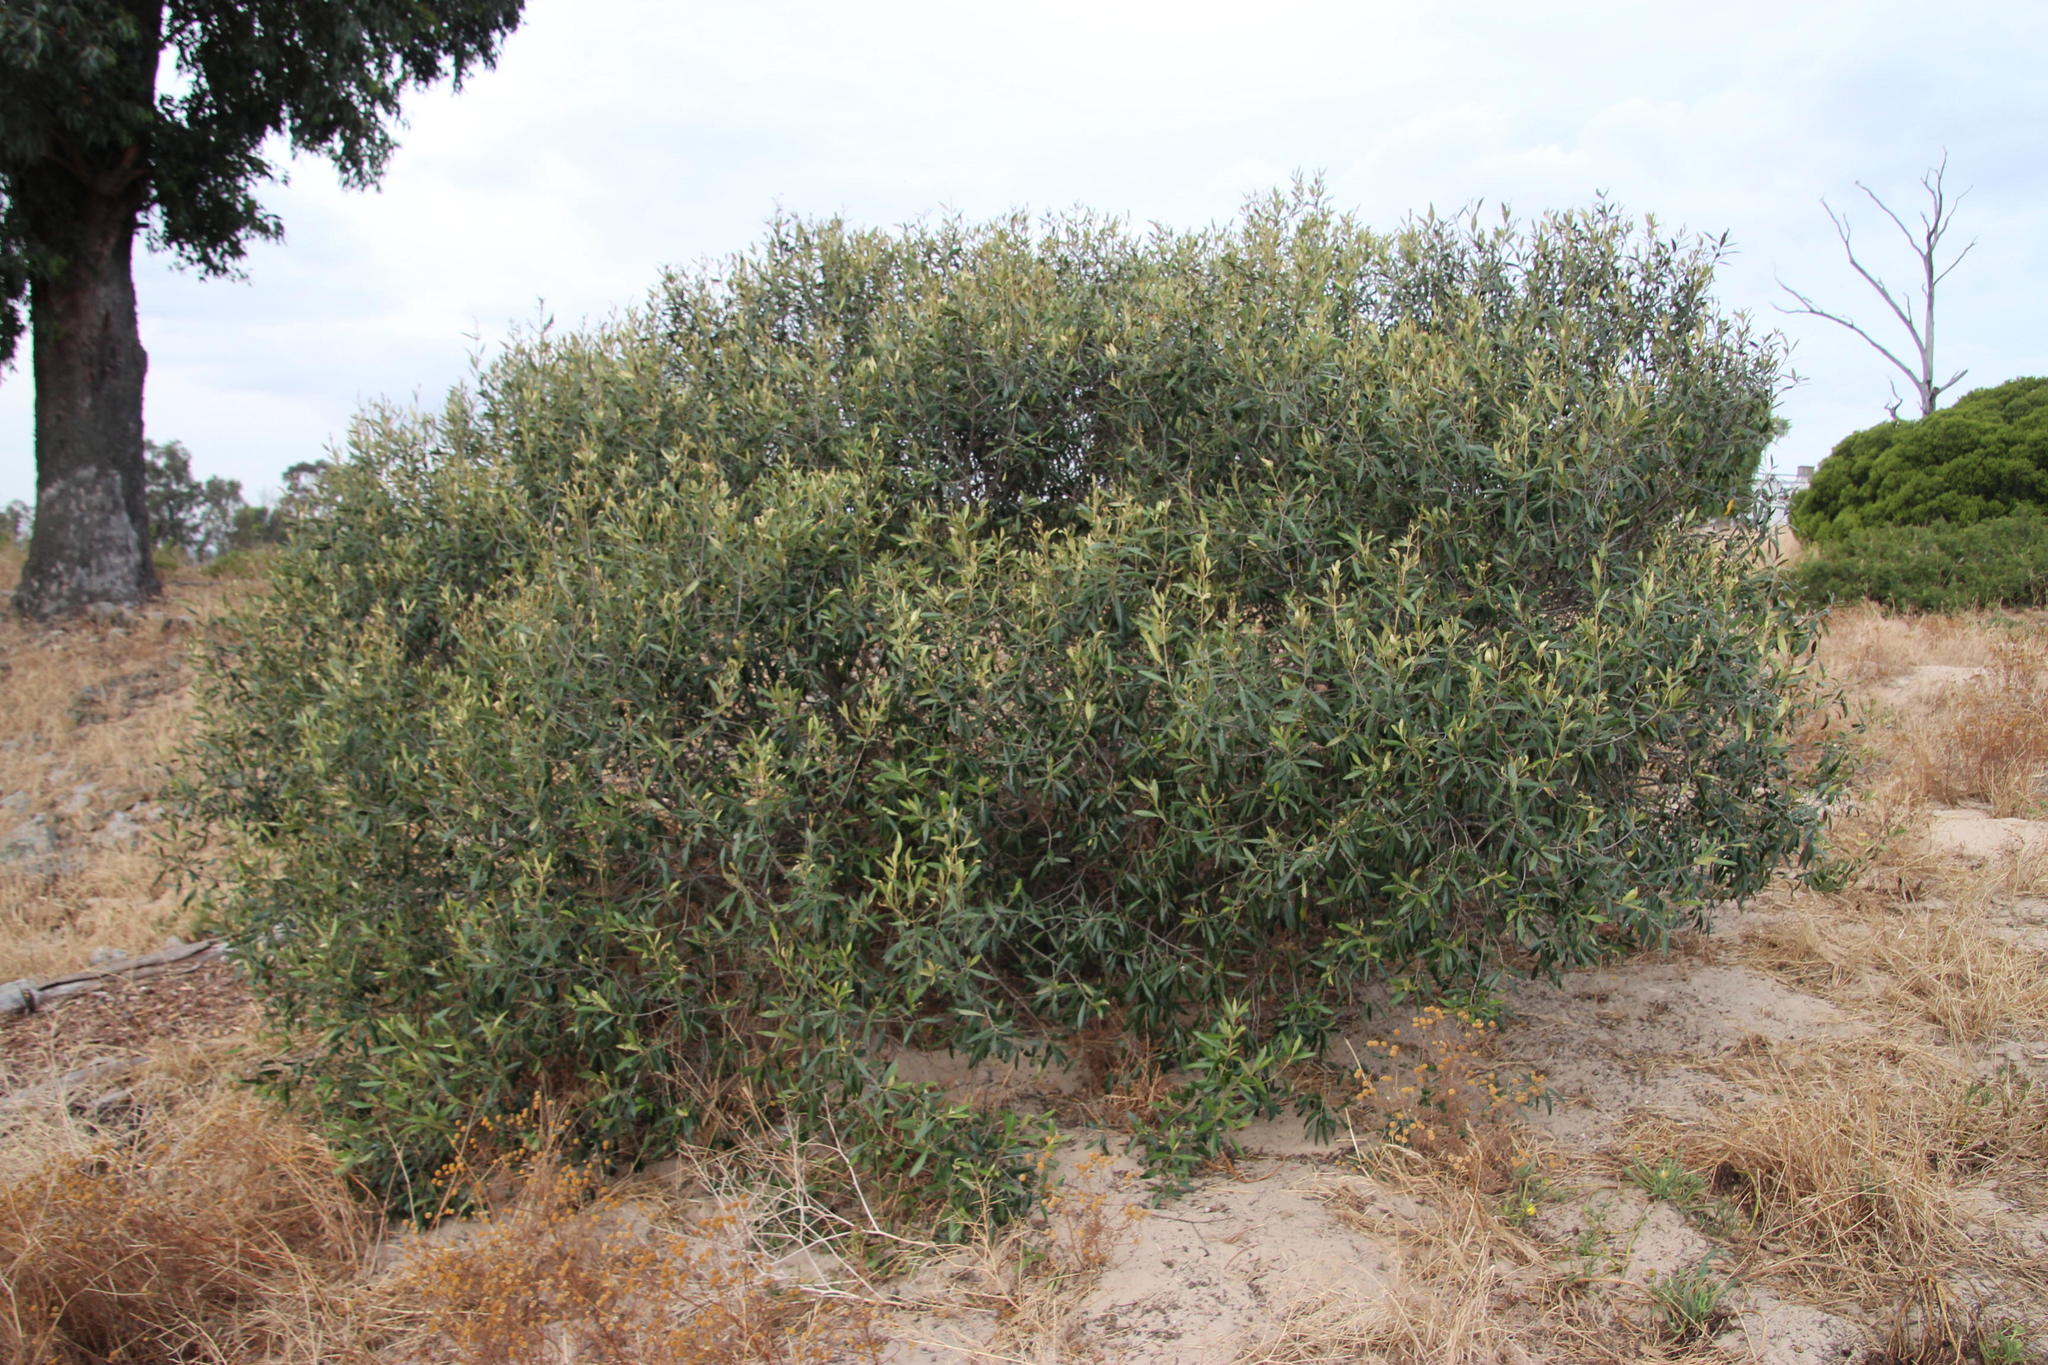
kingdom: Plantae
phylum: Tracheophyta
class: Magnoliopsida
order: Lamiales
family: Oleaceae
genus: Olea
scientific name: Olea europaea
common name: Olive
